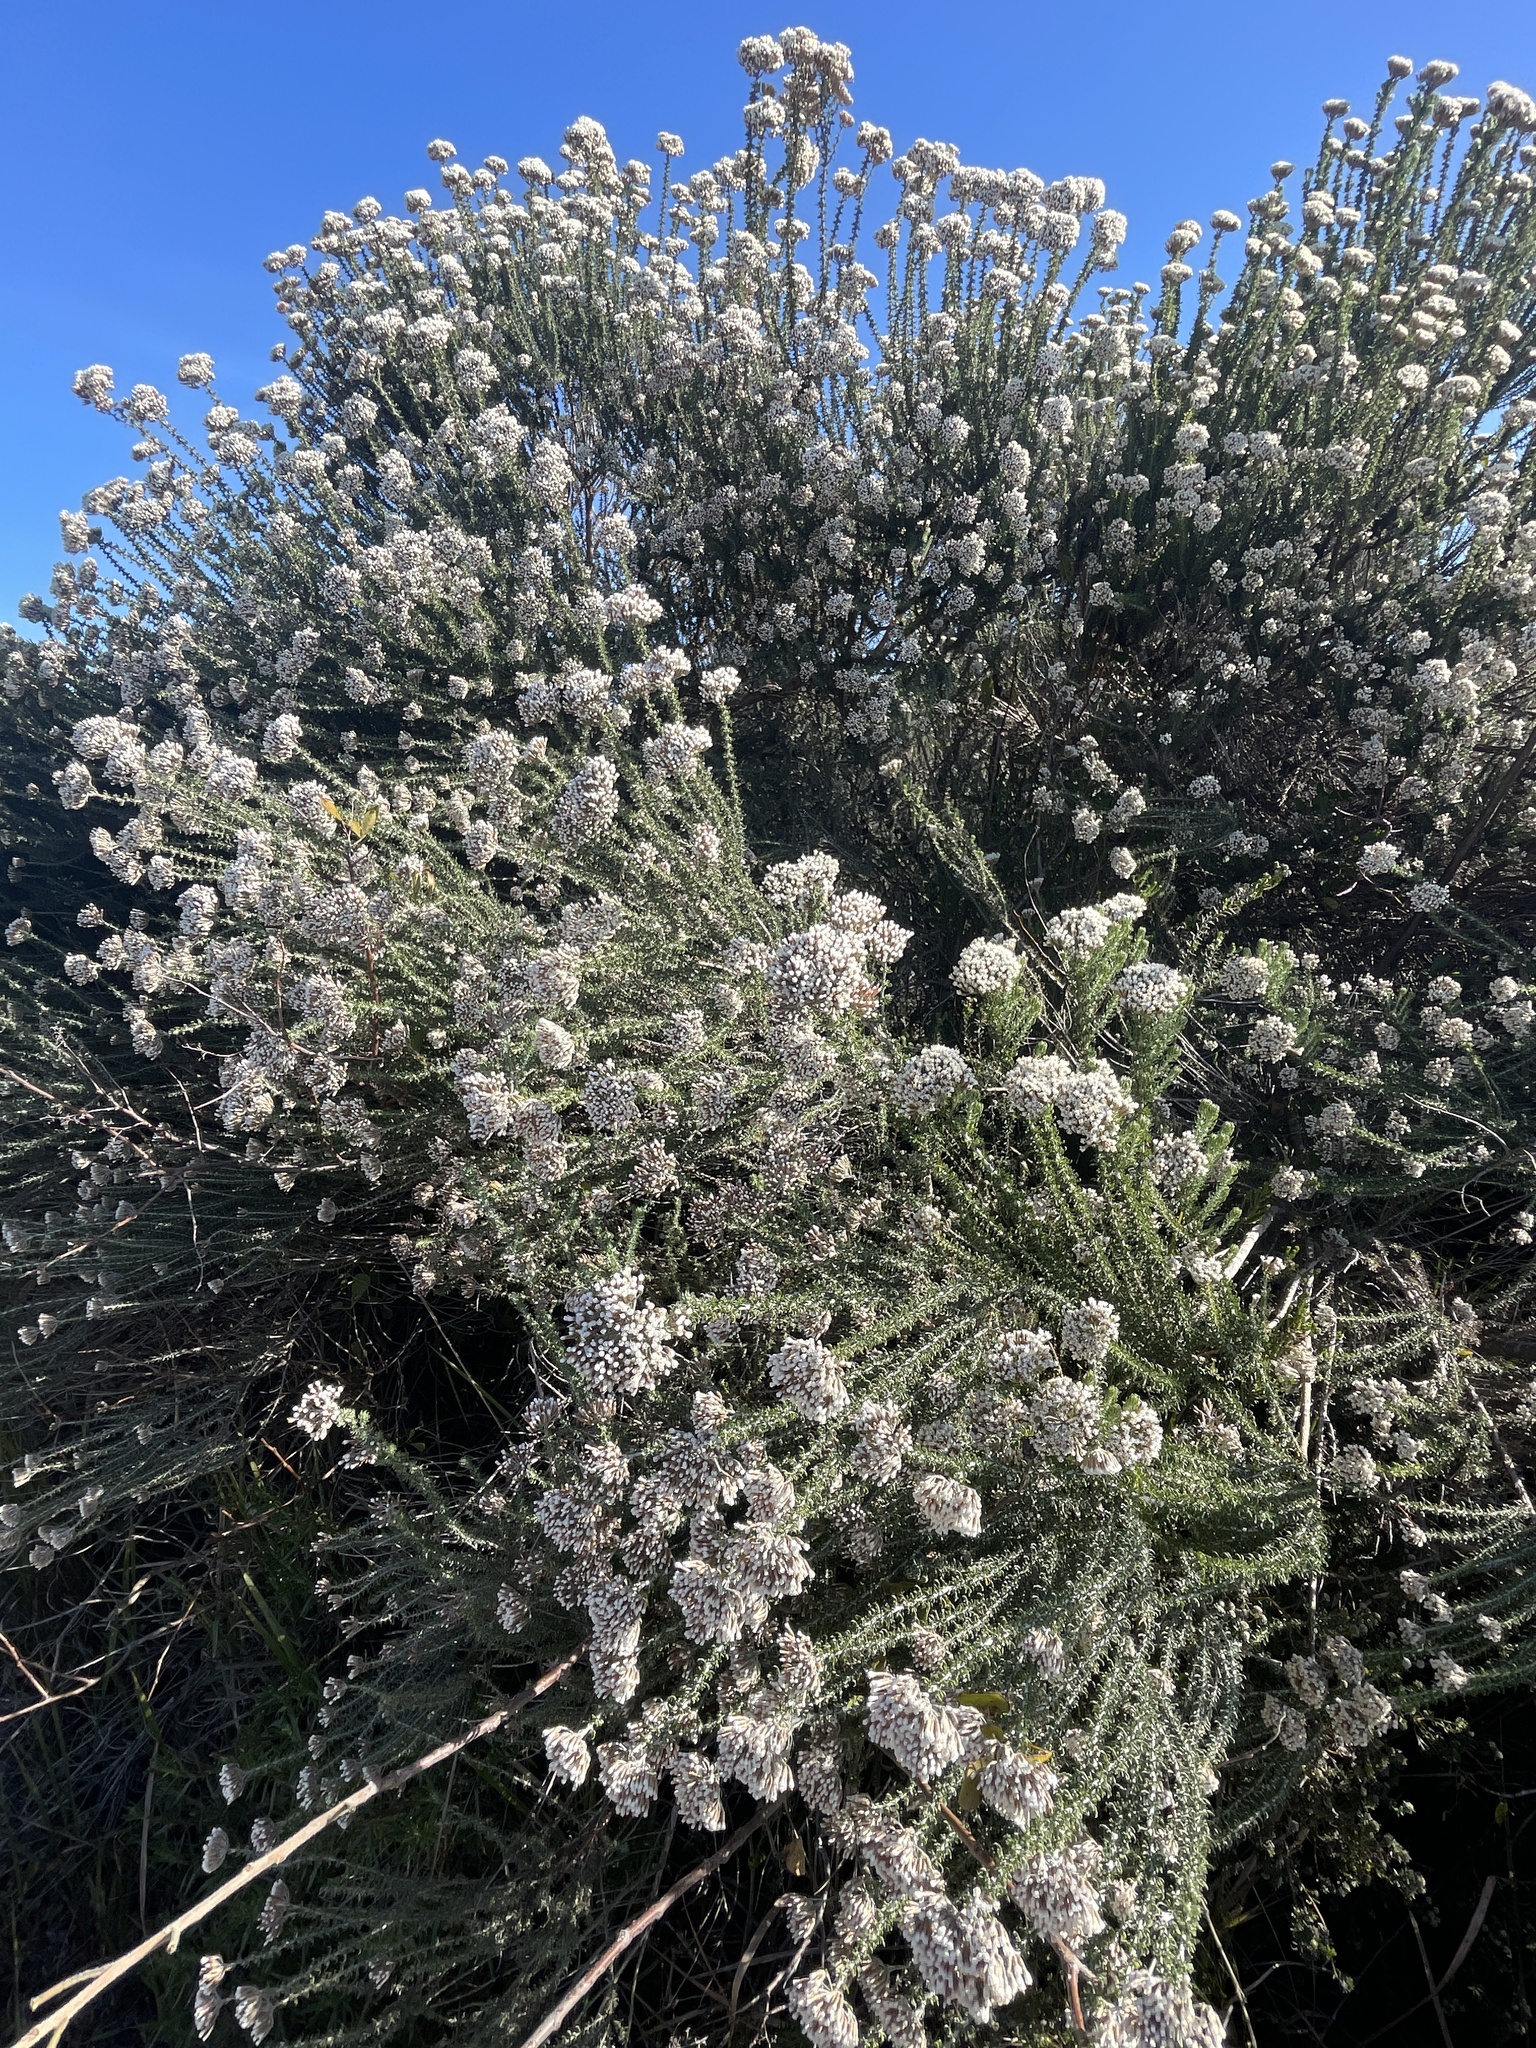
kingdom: Plantae
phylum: Tracheophyta
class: Magnoliopsida
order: Asterales
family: Asteraceae
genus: Metalasia
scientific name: Metalasia muricata
